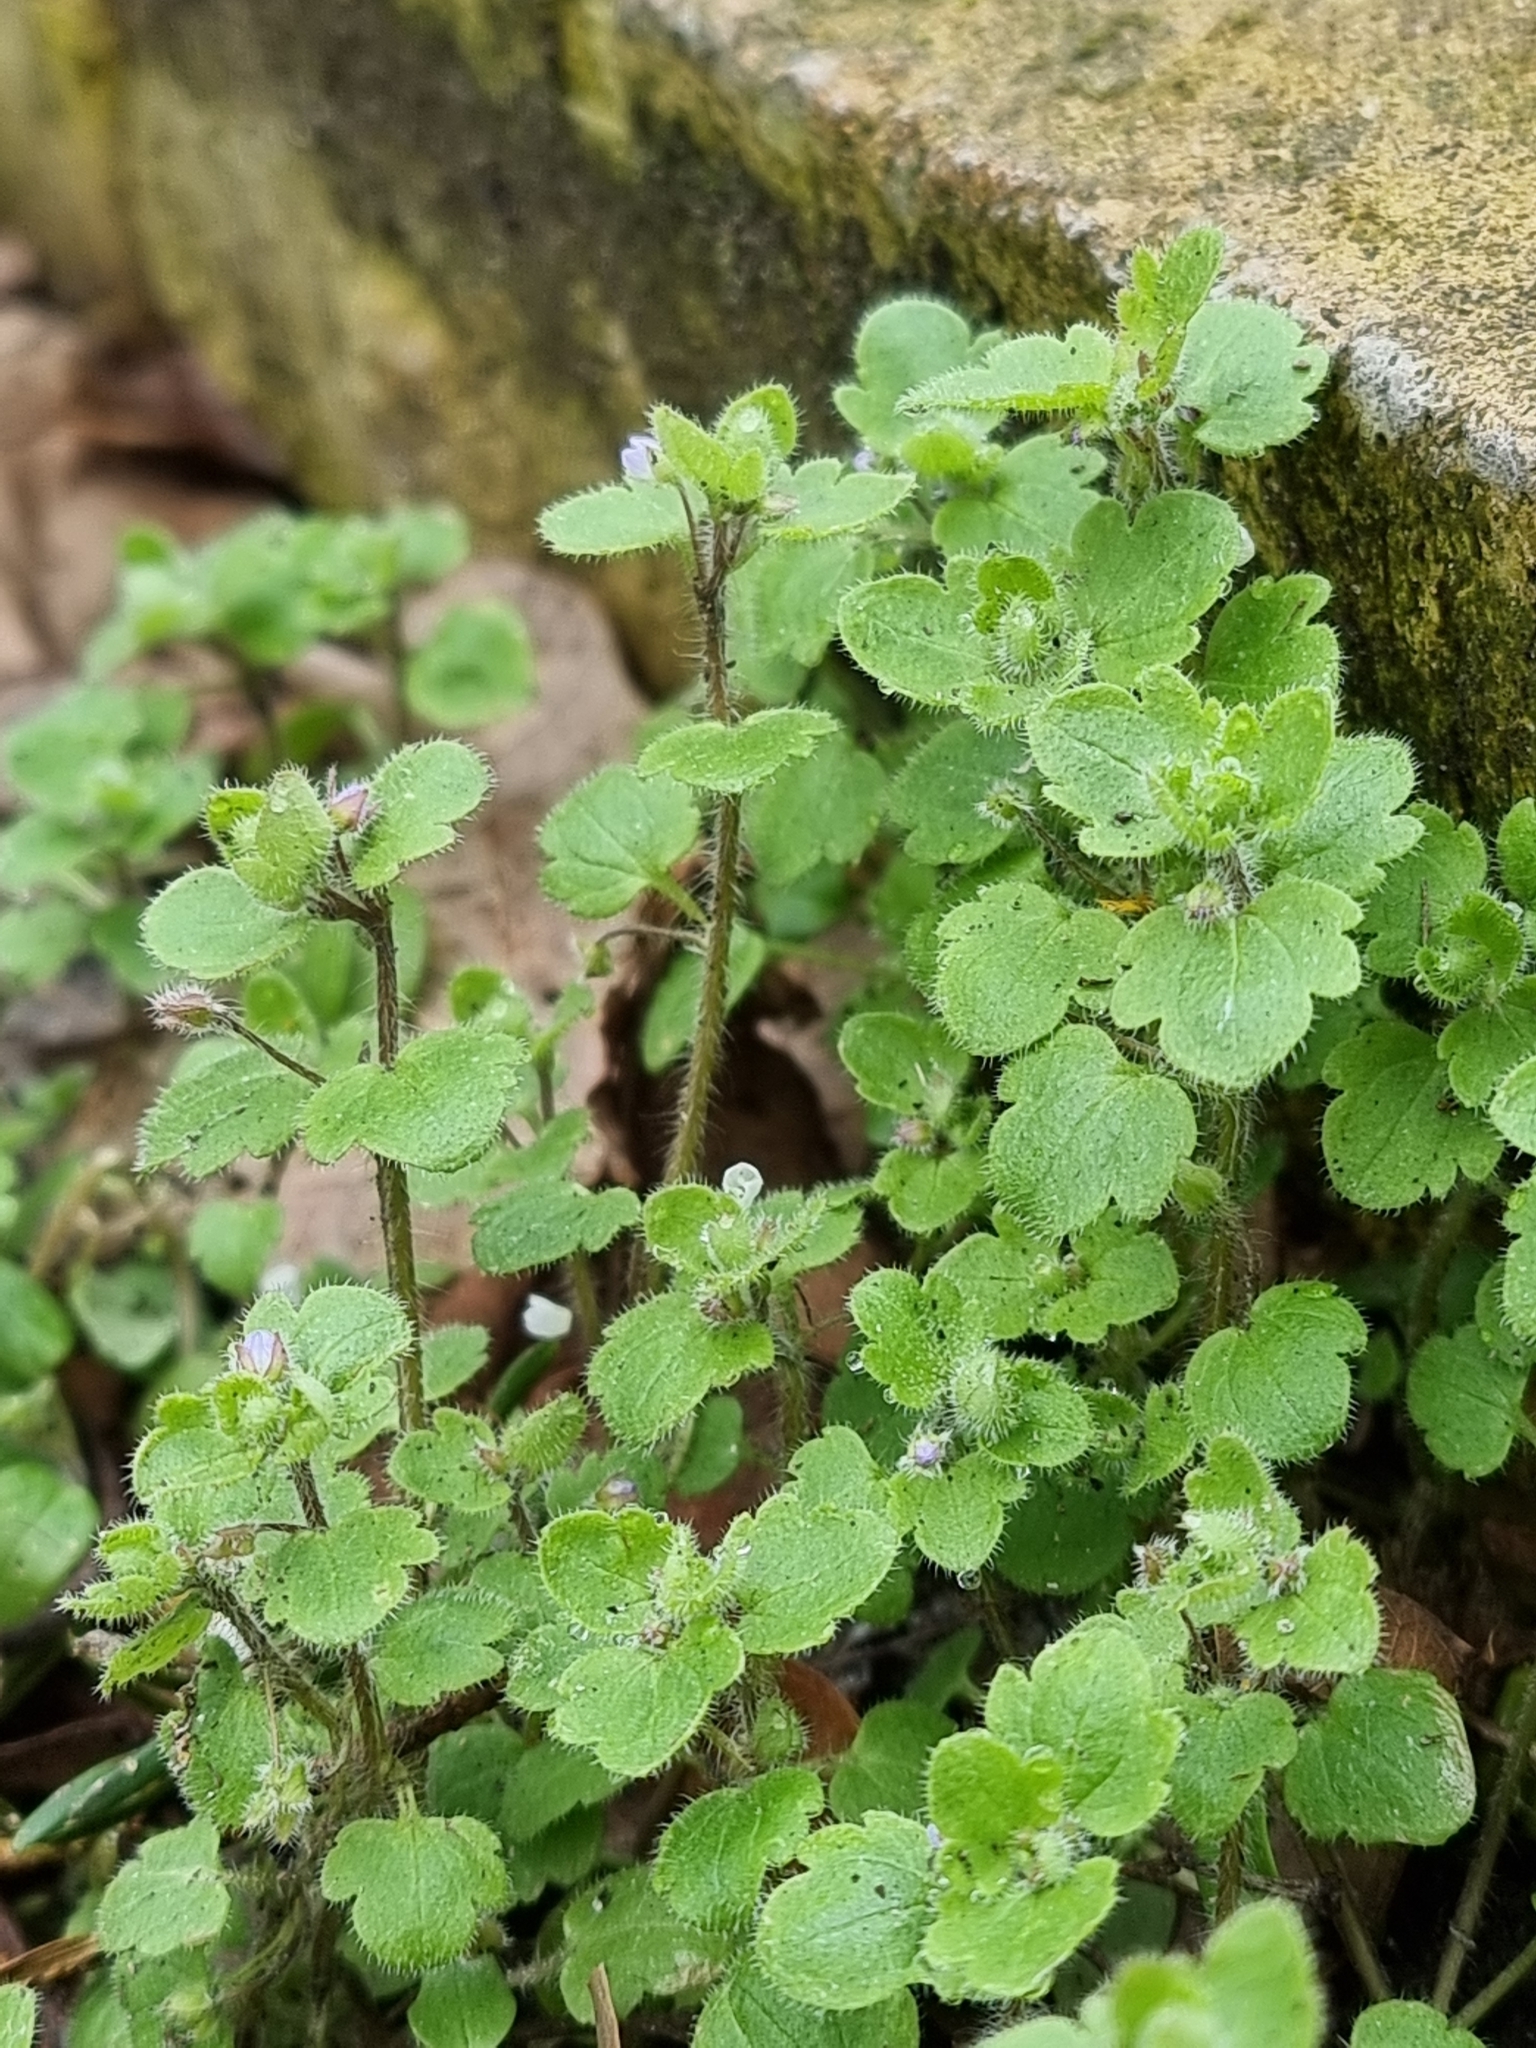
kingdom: Plantae
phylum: Tracheophyta
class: Magnoliopsida
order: Lamiales
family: Plantaginaceae
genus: Veronica
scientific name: Veronica sublobata
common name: False ivy-leaved speedwell
